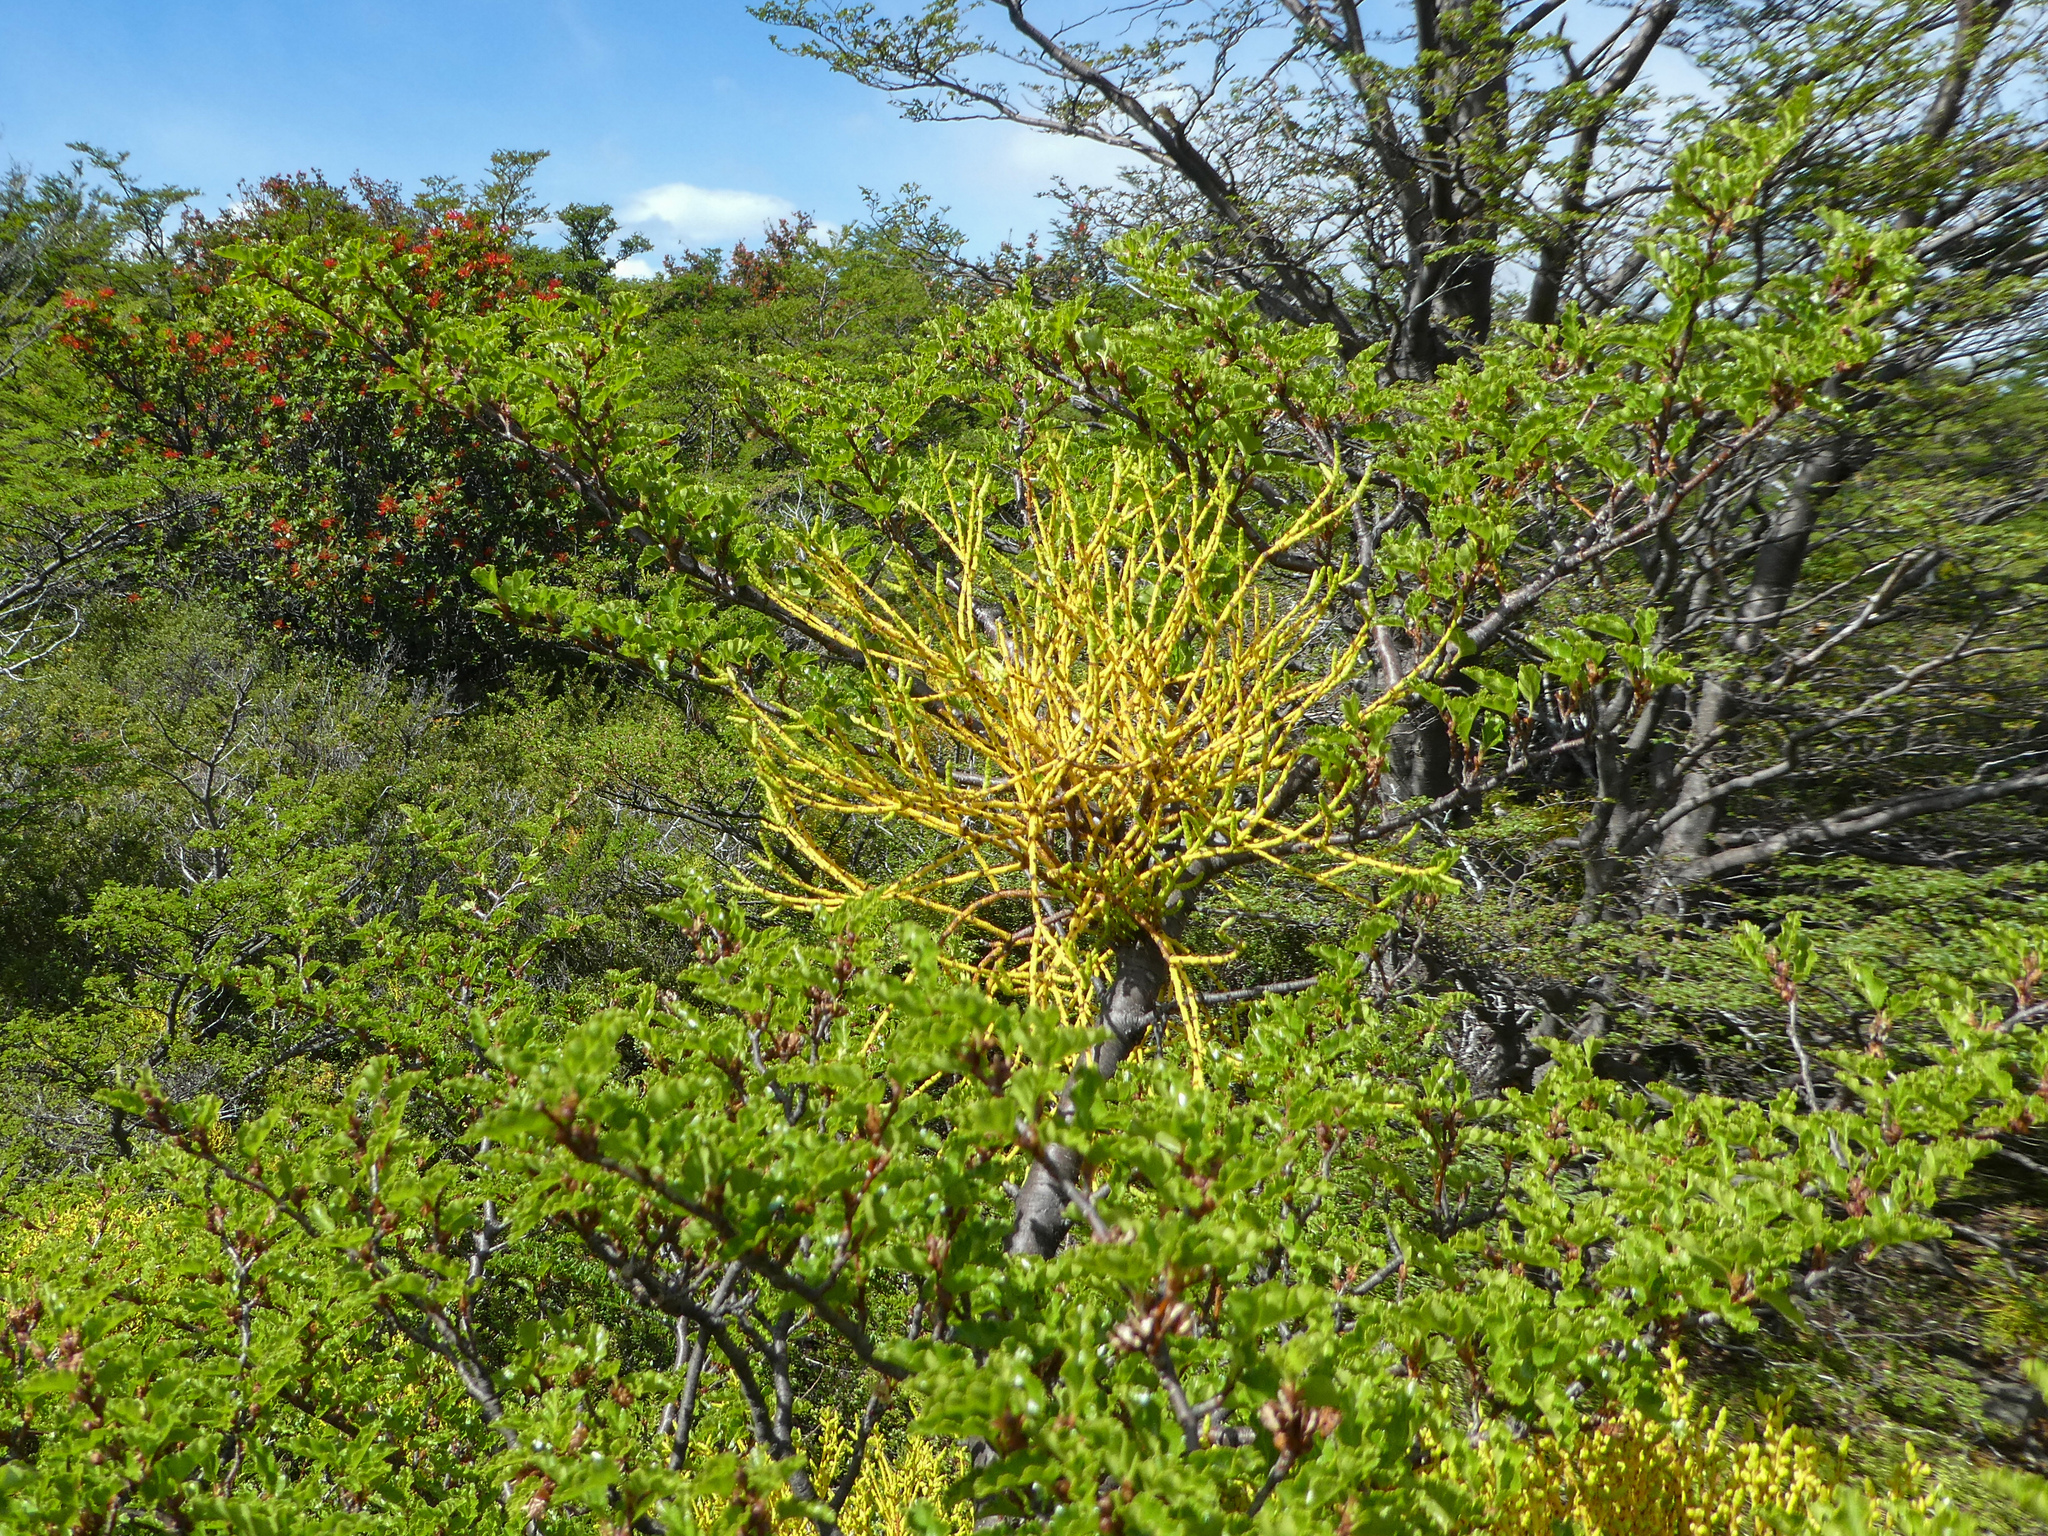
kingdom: Plantae
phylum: Tracheophyta
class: Magnoliopsida
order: Santalales
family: Misodendraceae
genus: Misodendrum
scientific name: Misodendrum punctulatum
